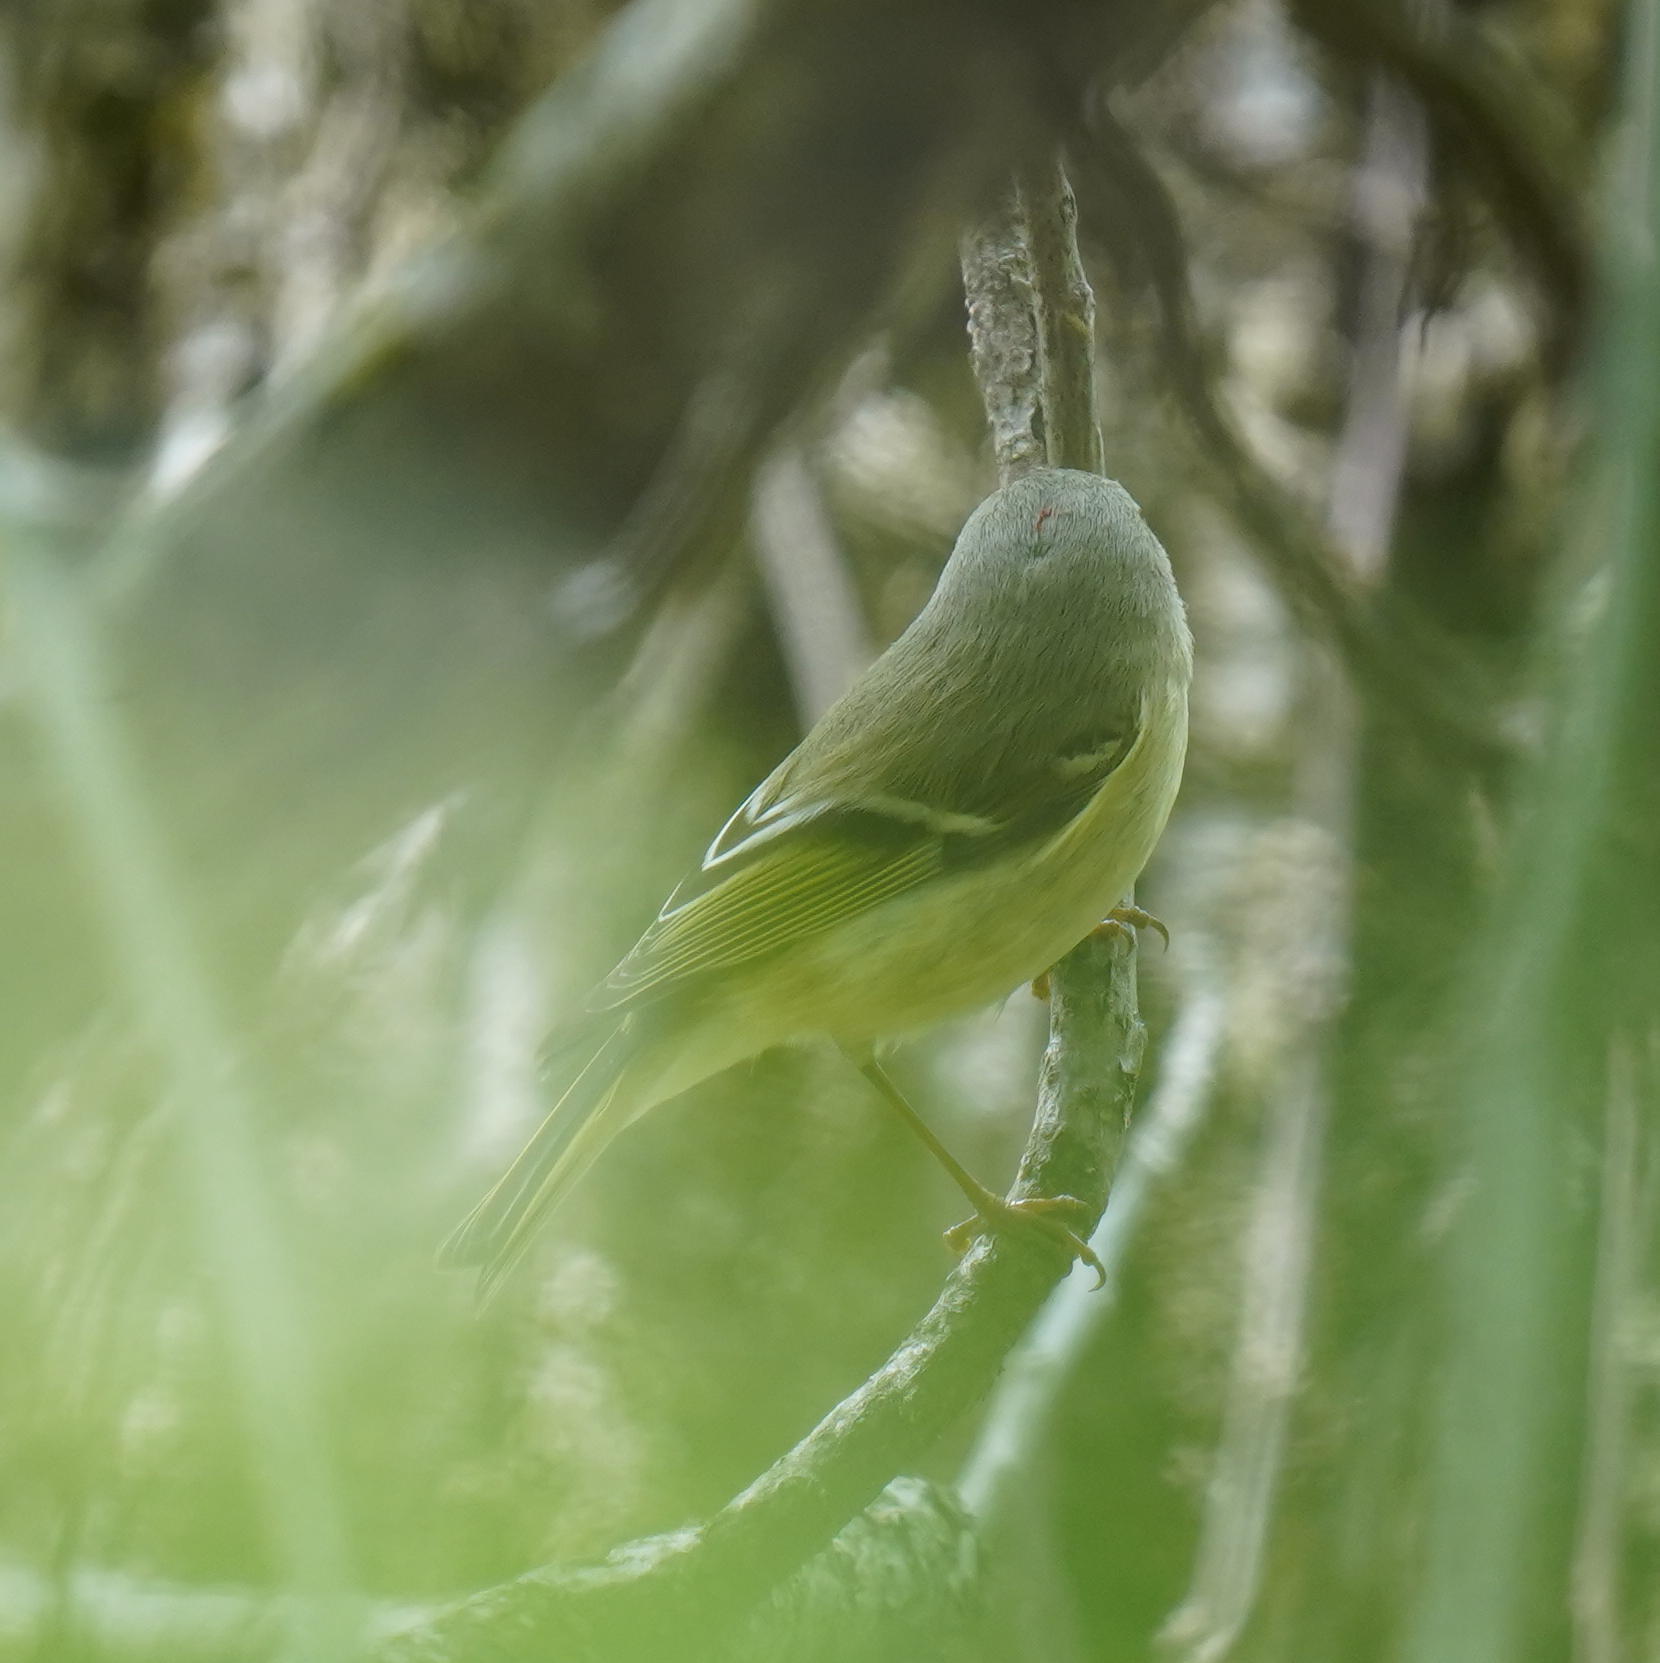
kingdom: Animalia
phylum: Chordata
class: Aves
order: Passeriformes
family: Regulidae
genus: Regulus
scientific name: Regulus calendula
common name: Ruby-crowned kinglet
